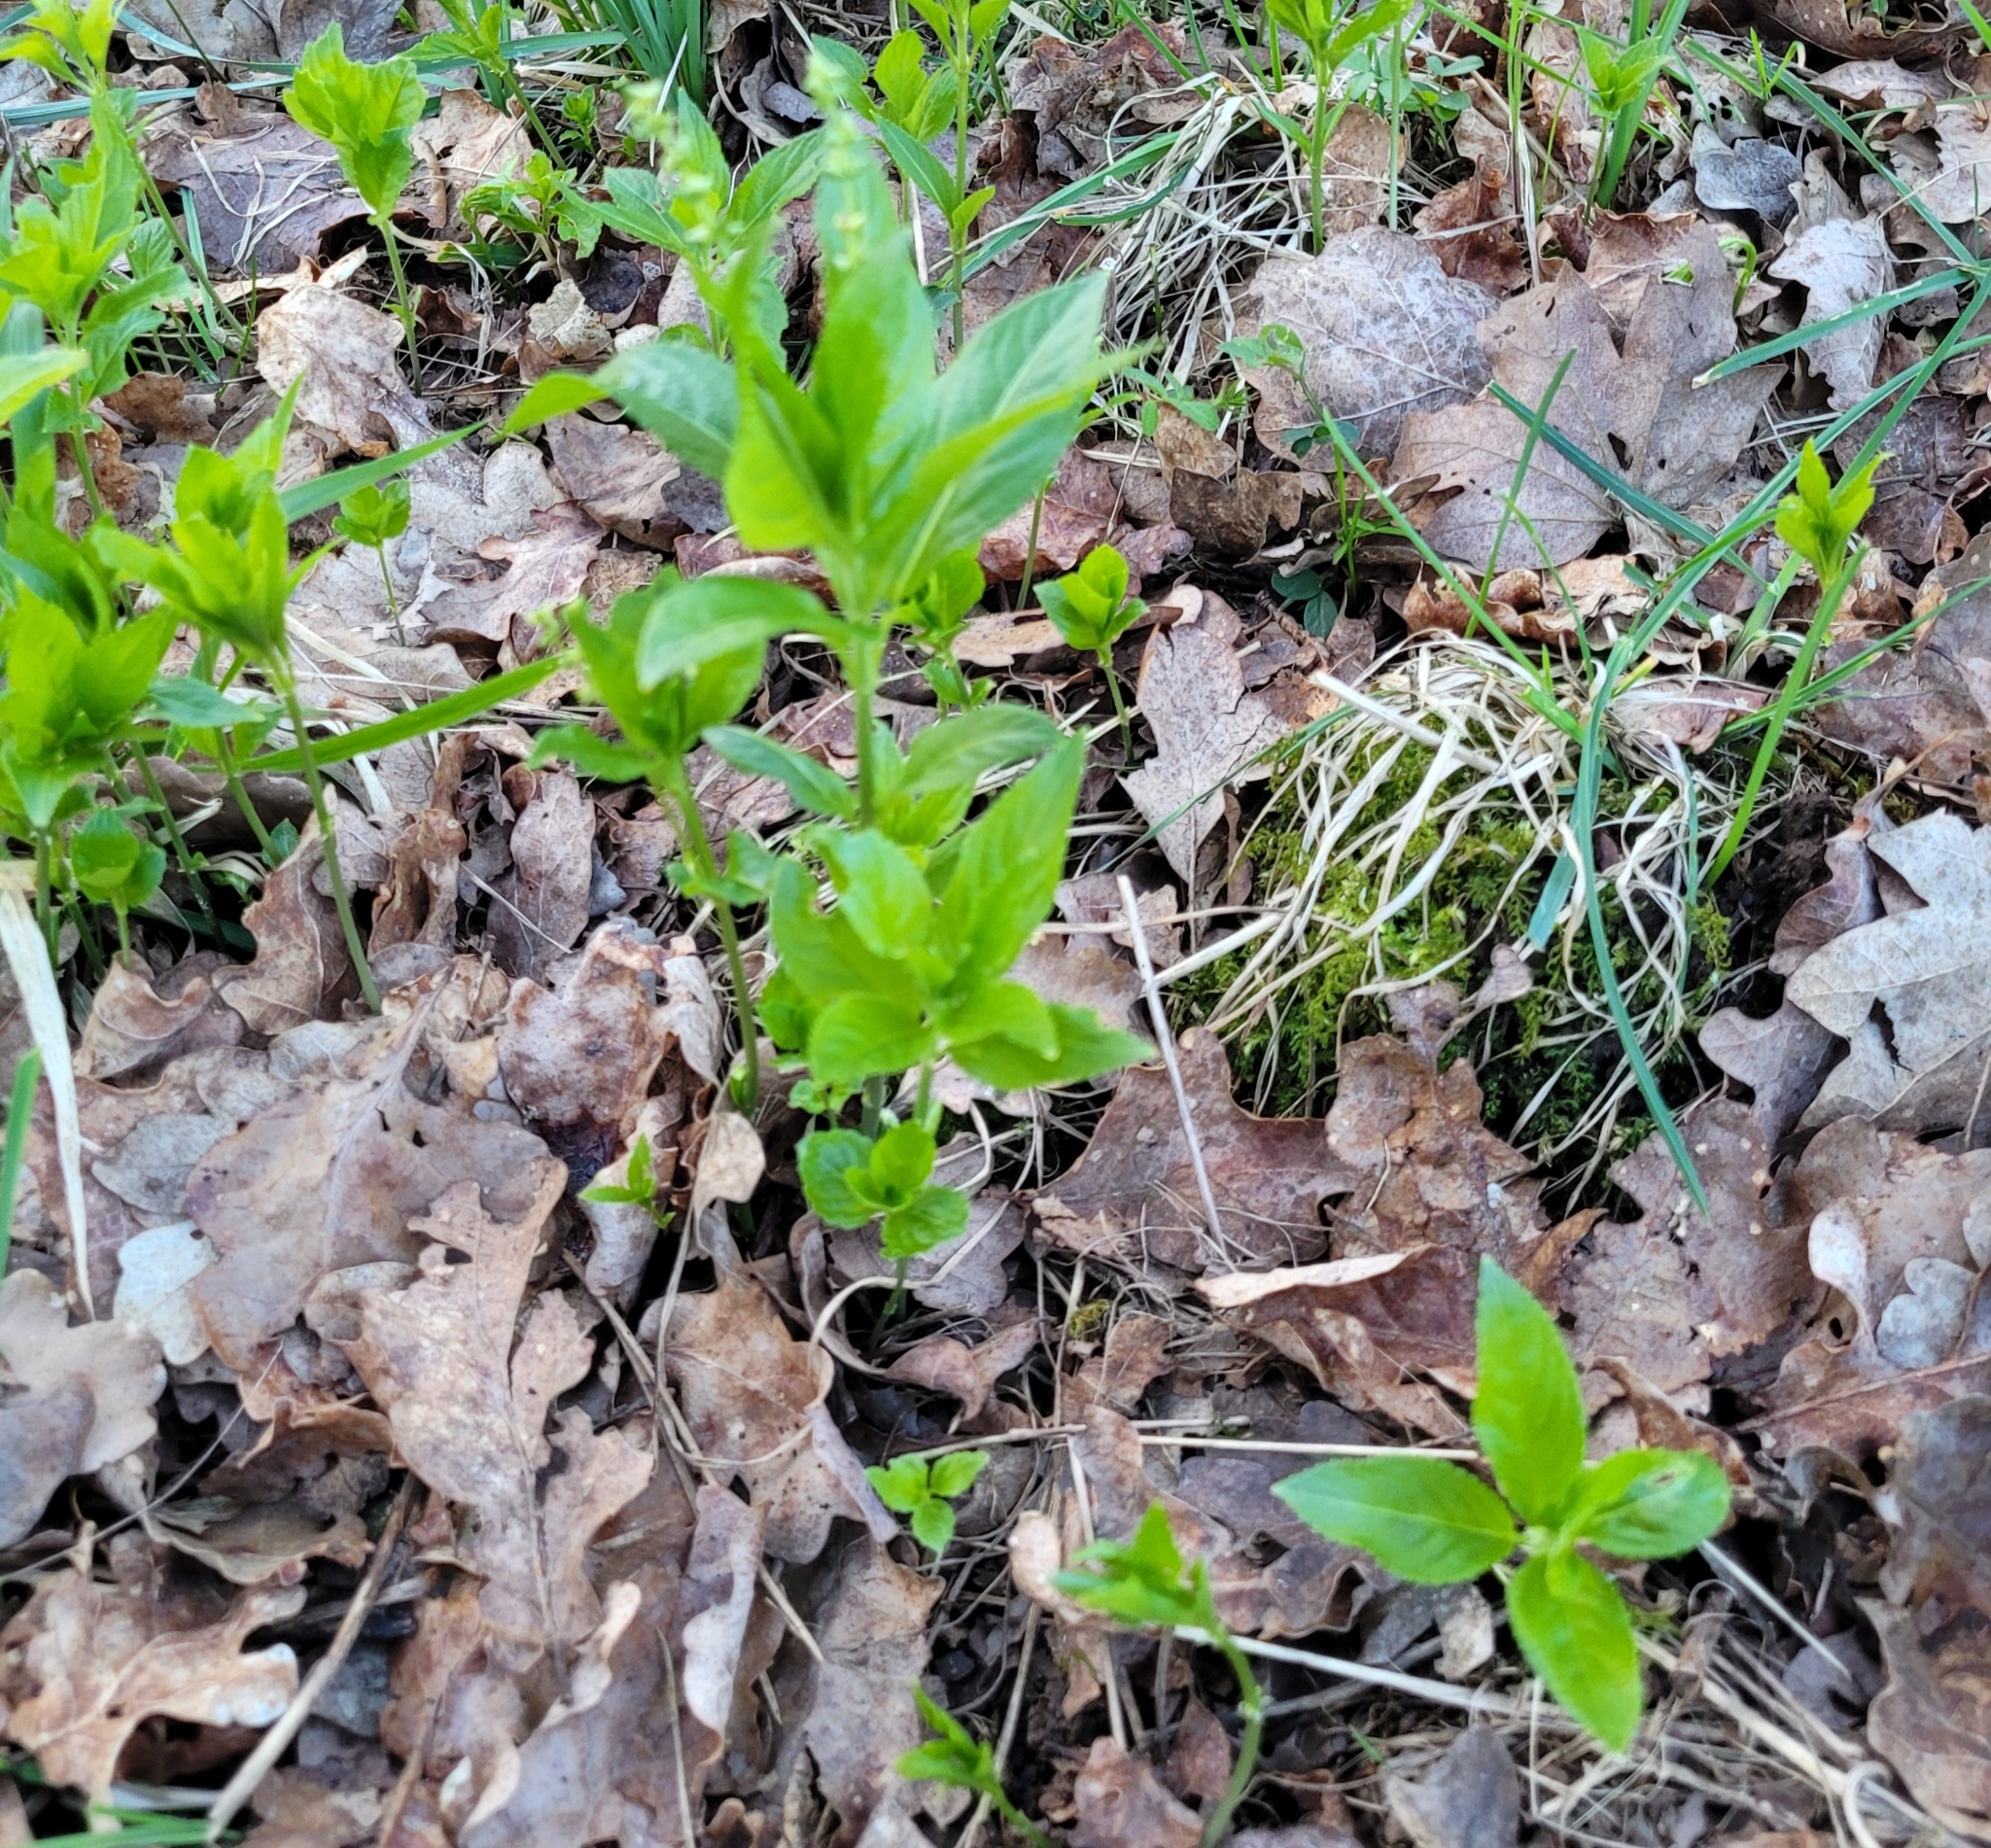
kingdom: Plantae
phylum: Tracheophyta
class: Magnoliopsida
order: Malpighiales
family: Euphorbiaceae
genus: Mercurialis
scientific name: Mercurialis perennis
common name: Dog mercury
